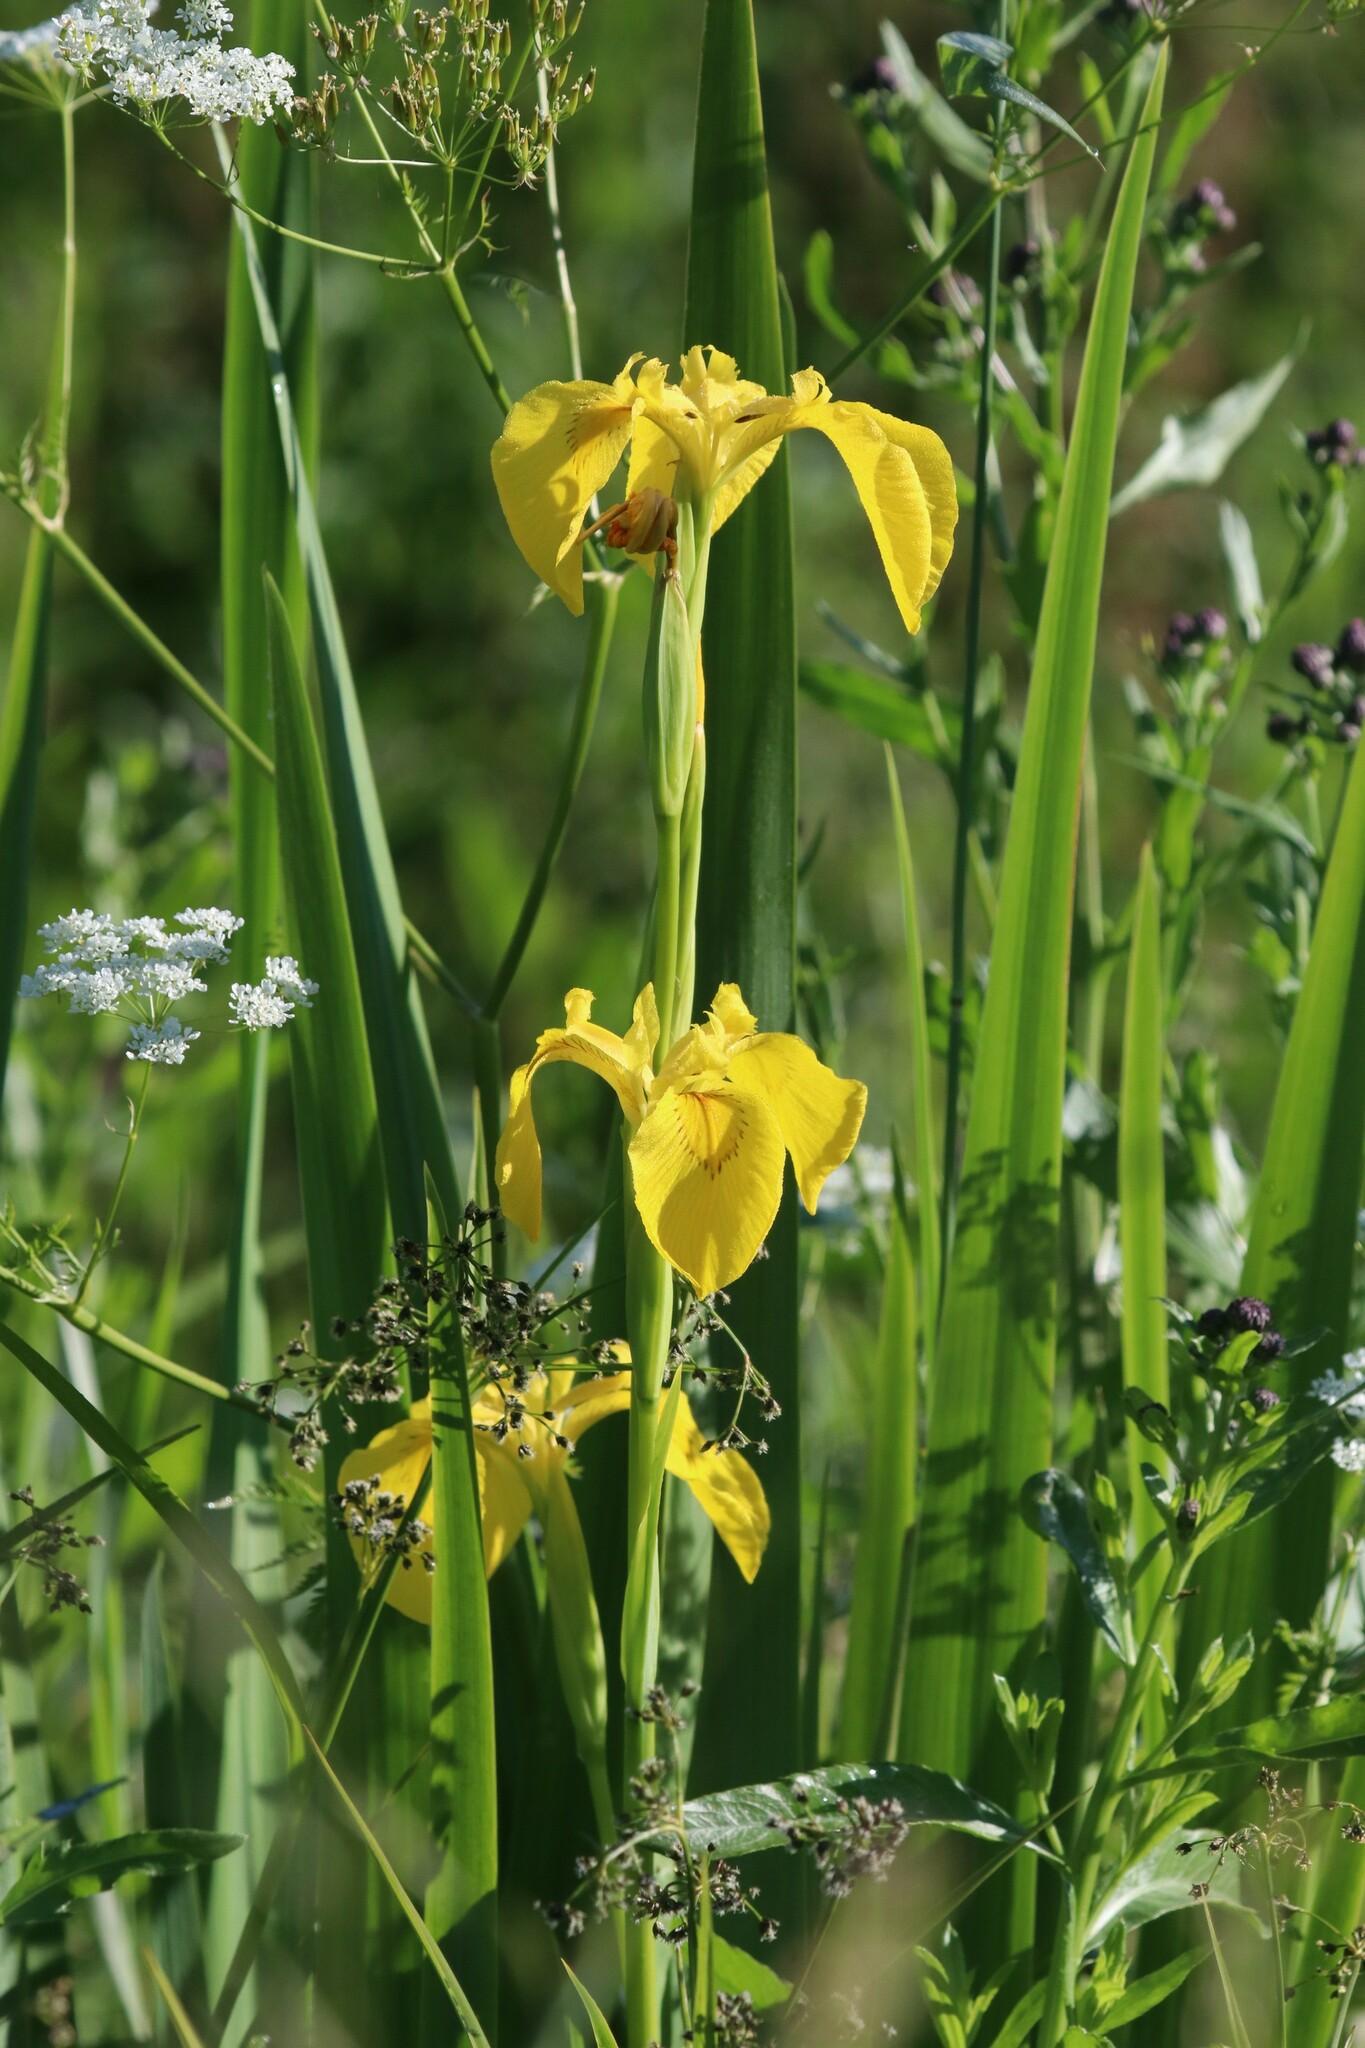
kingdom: Plantae
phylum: Tracheophyta
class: Liliopsida
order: Asparagales
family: Iridaceae
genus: Iris
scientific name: Iris pseudacorus
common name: Yellow flag
